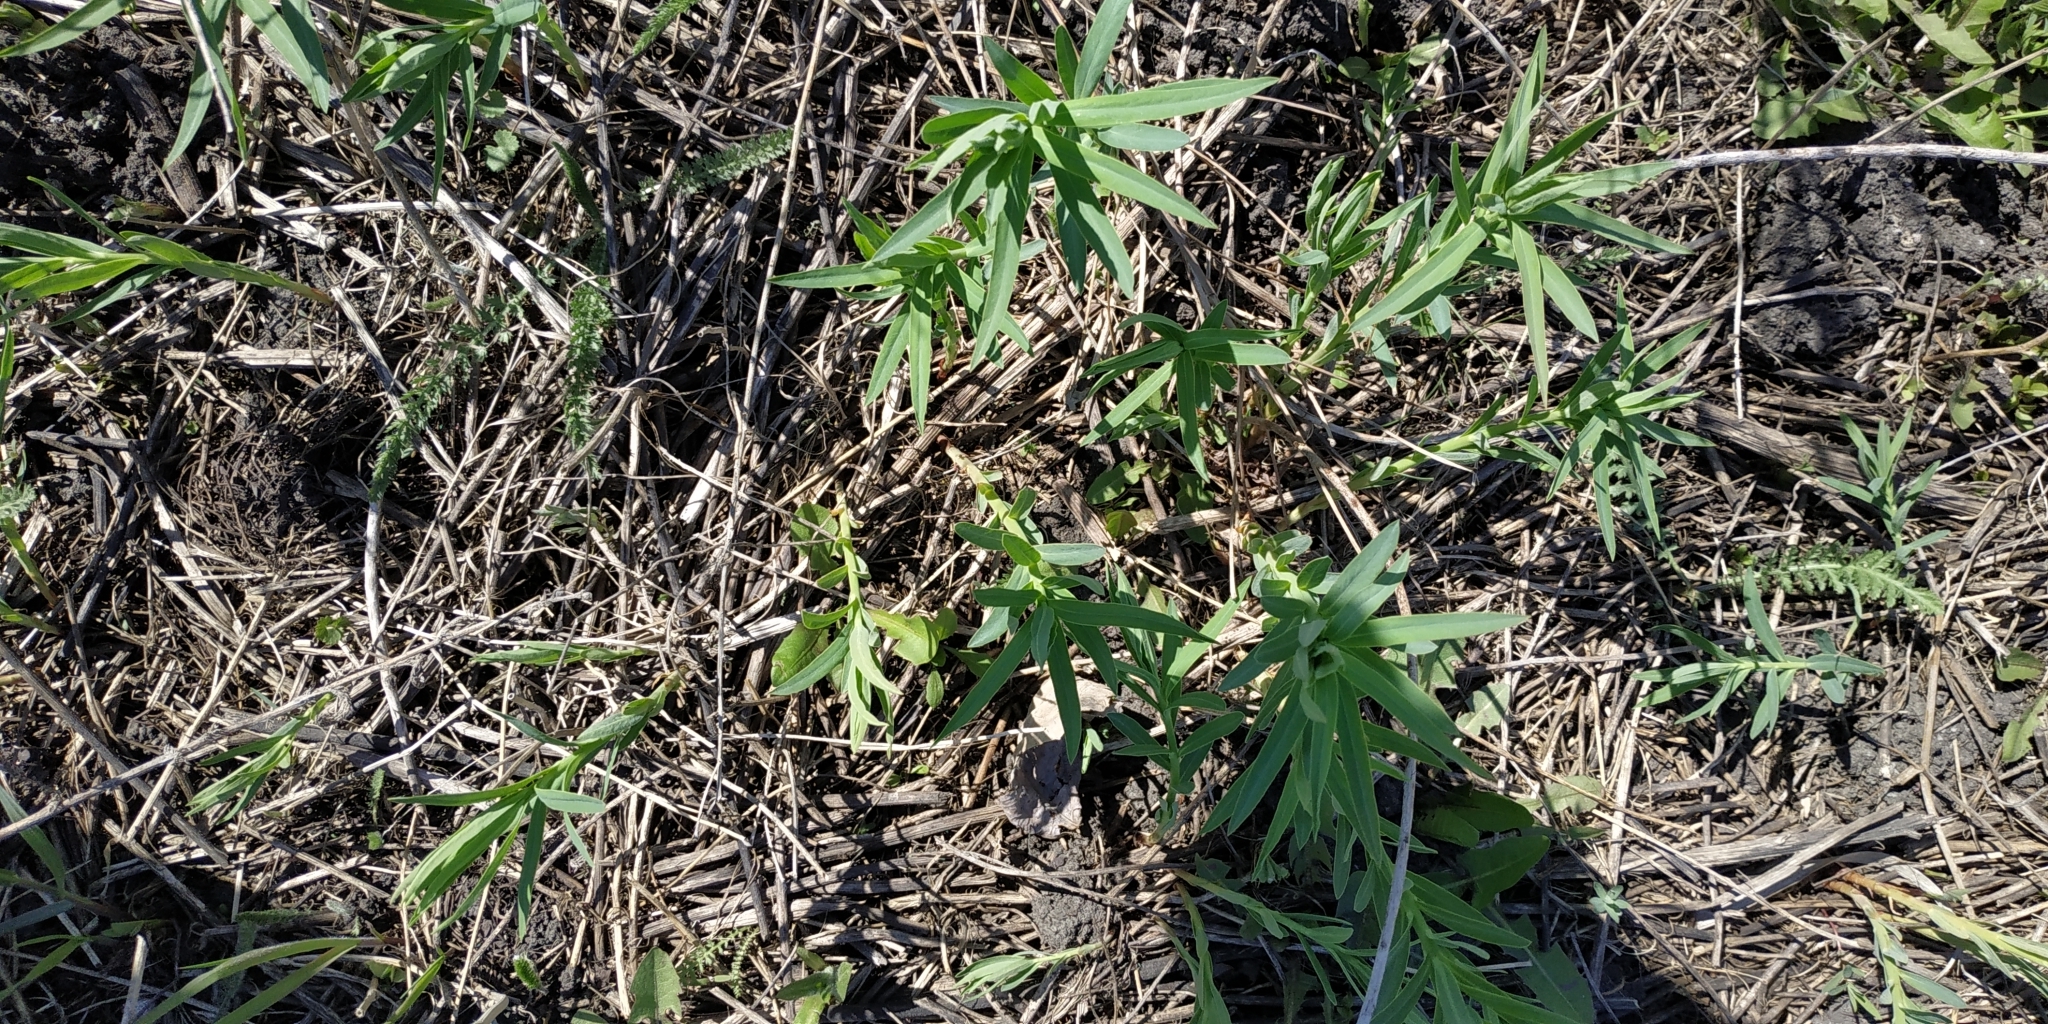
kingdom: Plantae
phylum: Tracheophyta
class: Magnoliopsida
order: Malpighiales
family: Euphorbiaceae
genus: Euphorbia
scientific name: Euphorbia virgata
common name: Leafy spurge
